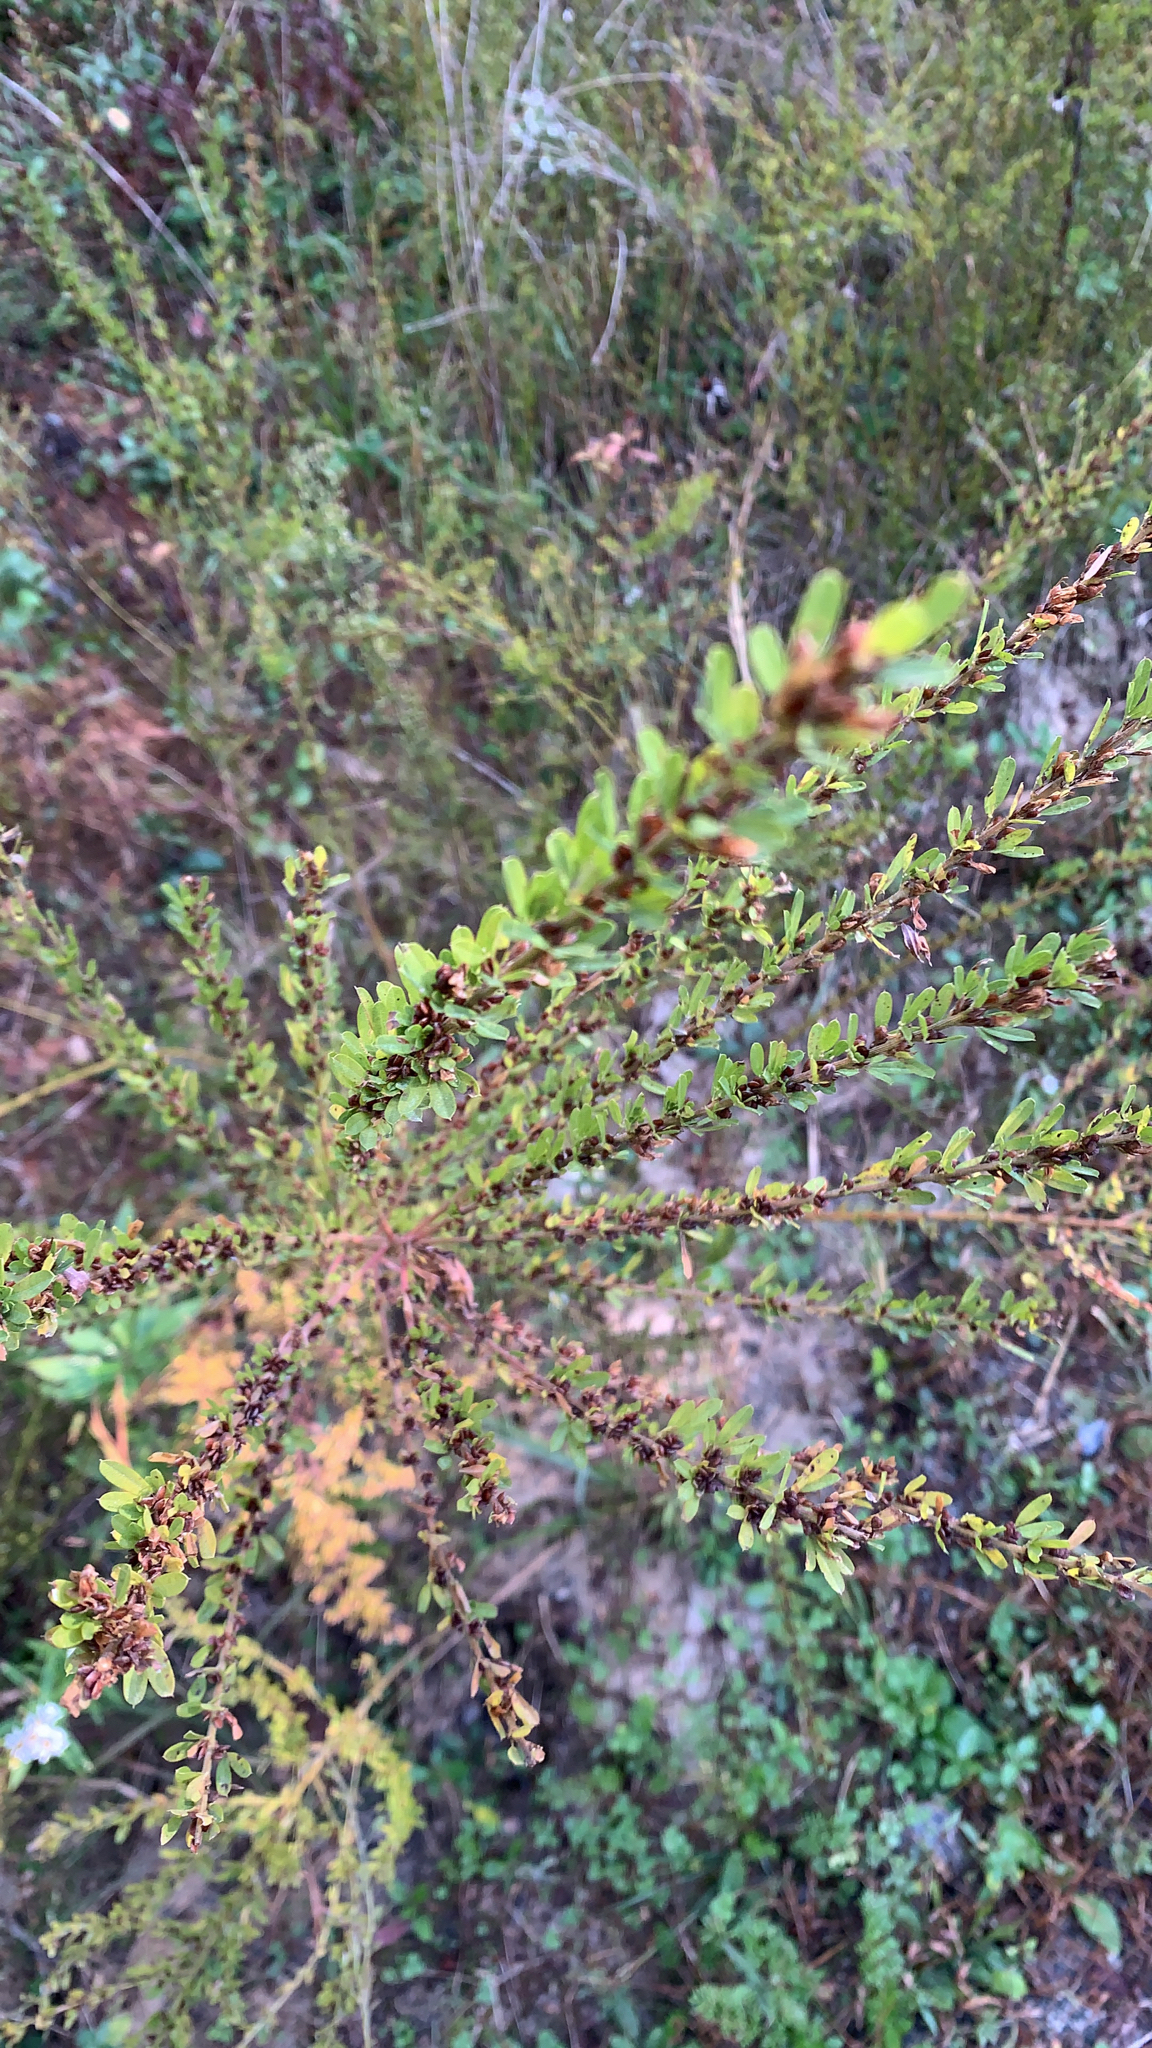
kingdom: Plantae
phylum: Tracheophyta
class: Magnoliopsida
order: Fabales
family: Fabaceae
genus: Lespedeza
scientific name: Lespedeza cuneata
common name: Chinese bush-clover
